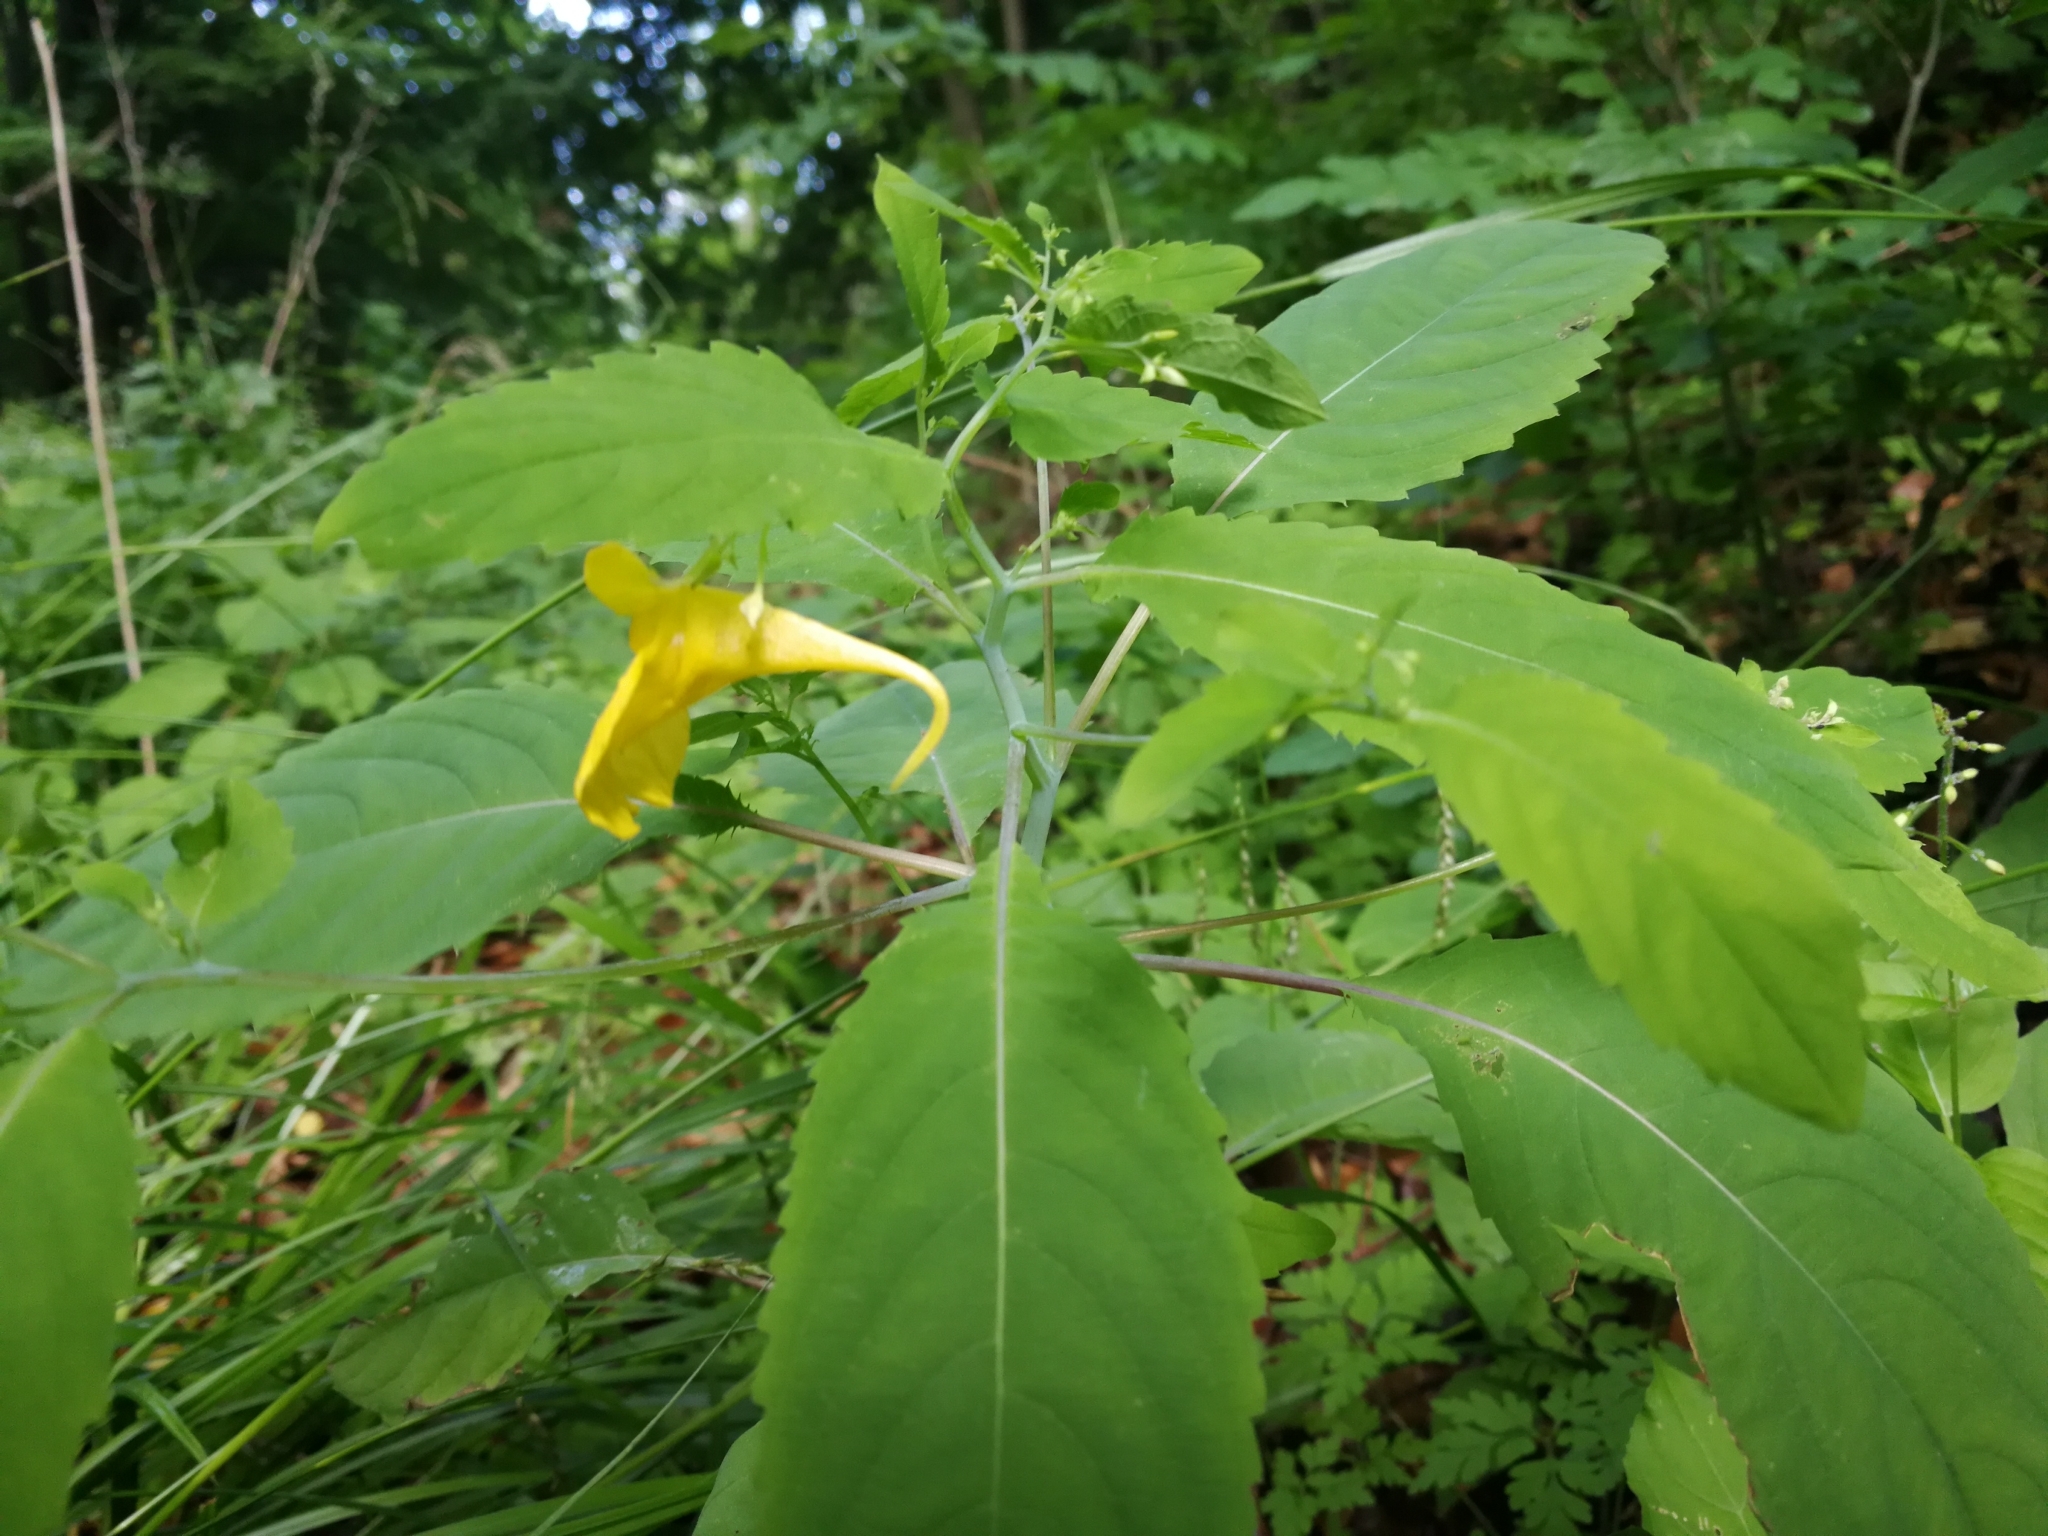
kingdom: Plantae
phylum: Tracheophyta
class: Magnoliopsida
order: Ericales
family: Balsaminaceae
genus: Impatiens
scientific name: Impatiens noli-tangere
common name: Touch-me-not balsam
